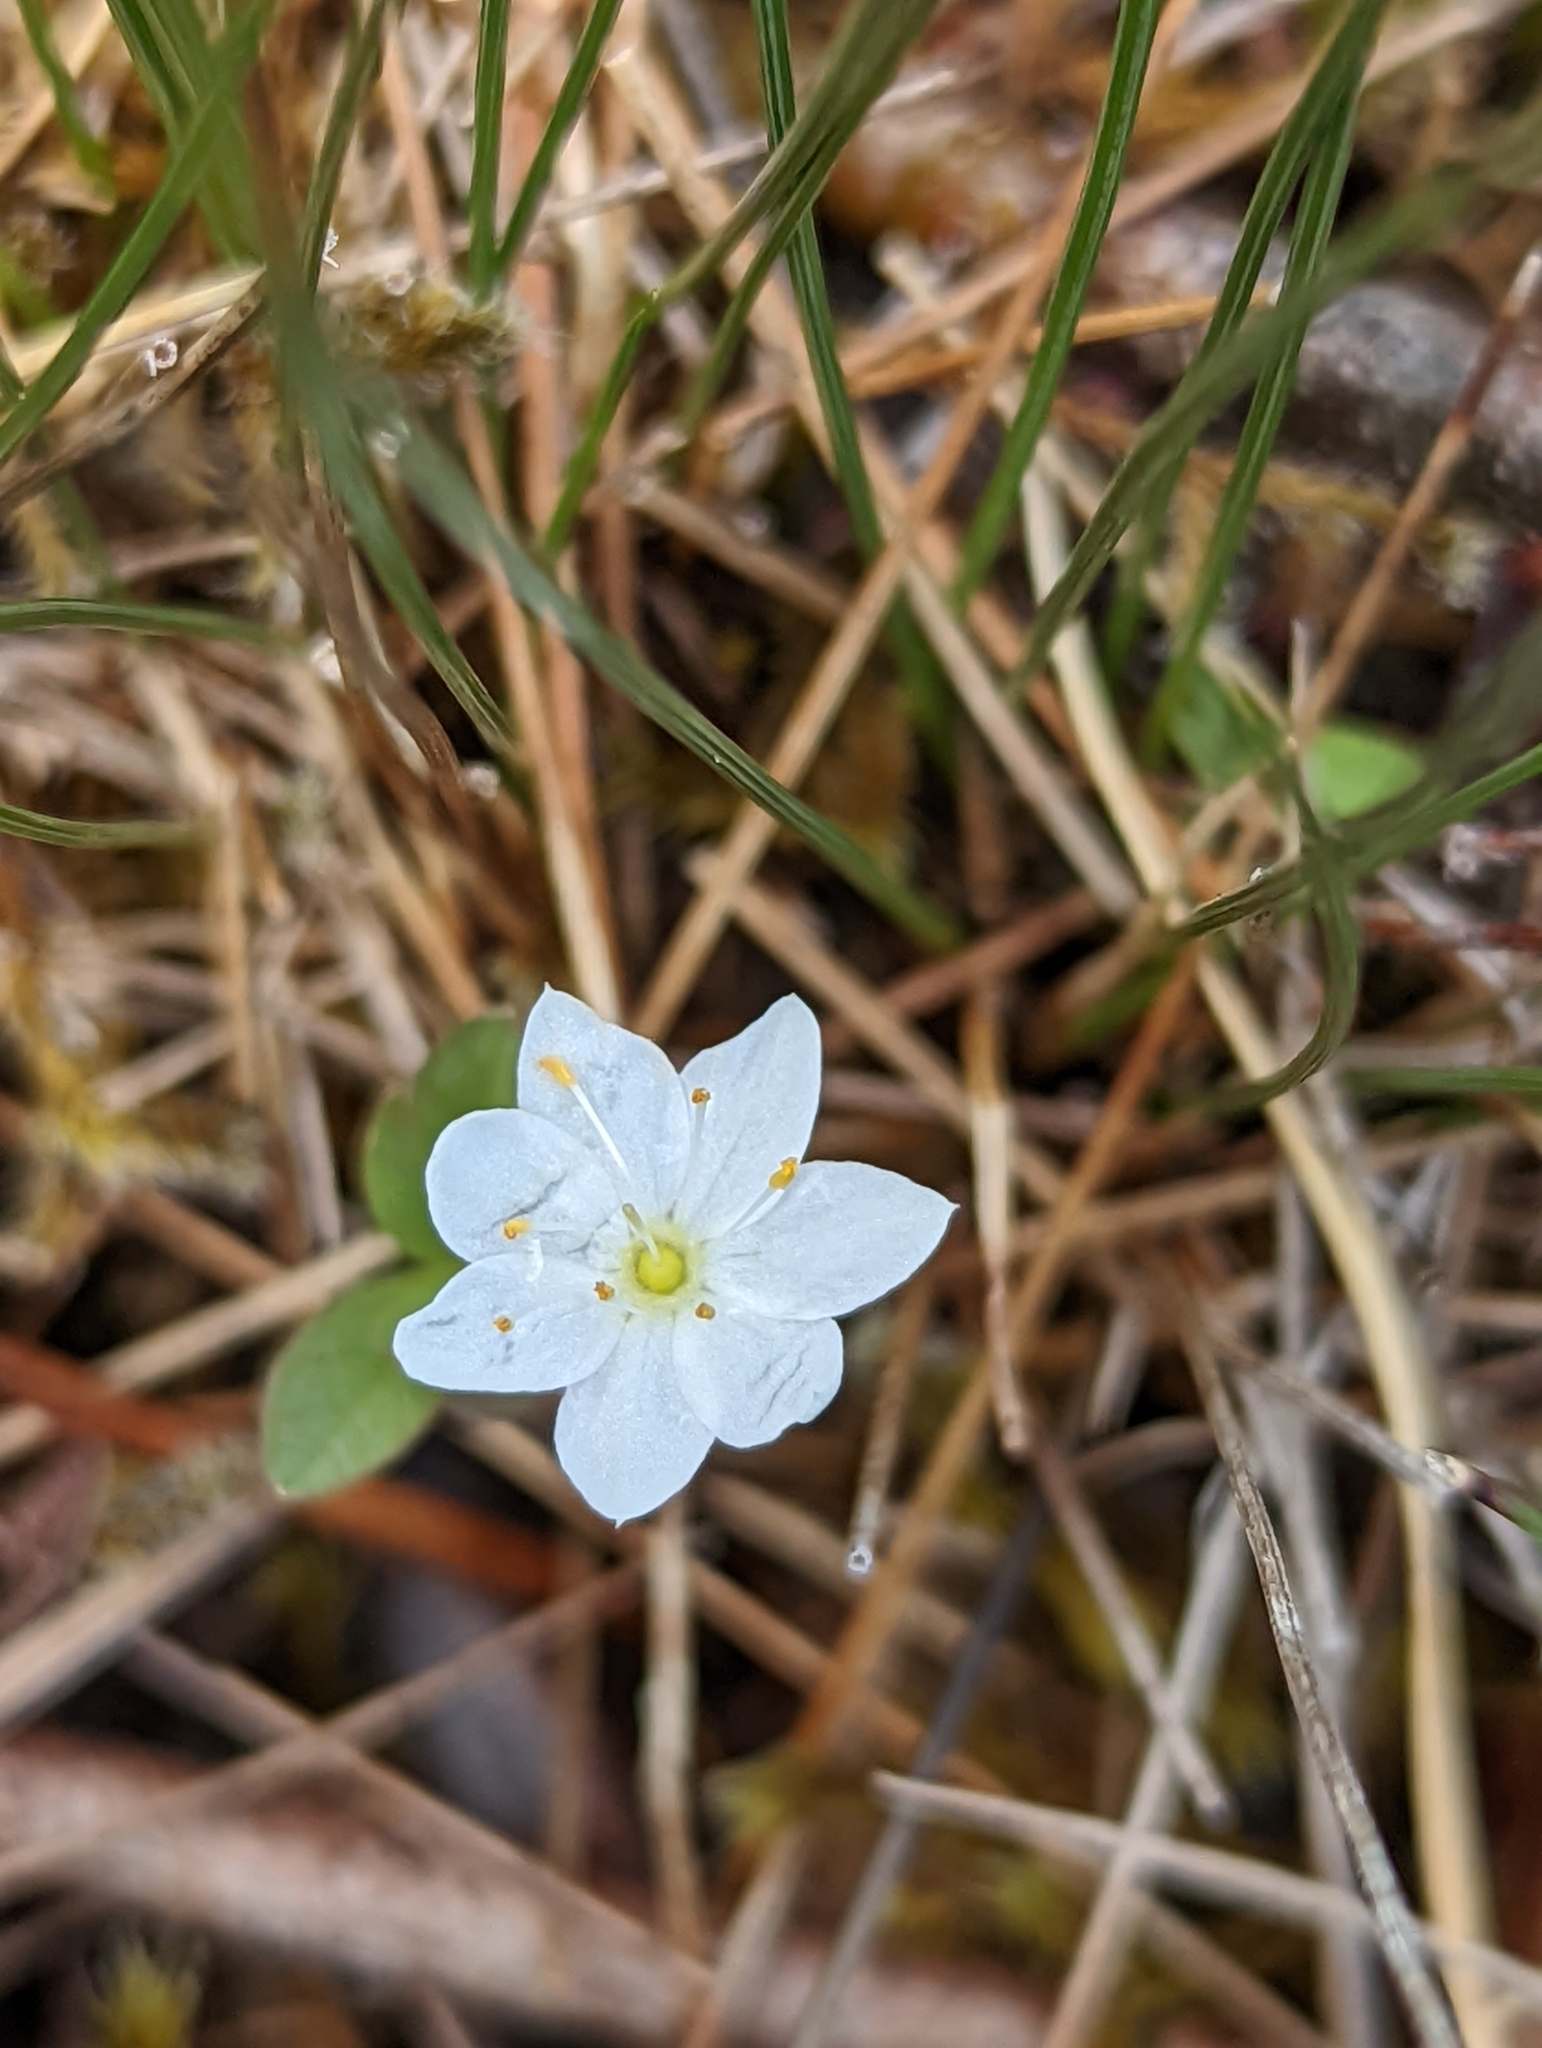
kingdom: Plantae
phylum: Tracheophyta
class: Magnoliopsida
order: Ericales
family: Primulaceae
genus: Lysimachia
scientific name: Lysimachia europaea
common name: Arctic starflower
